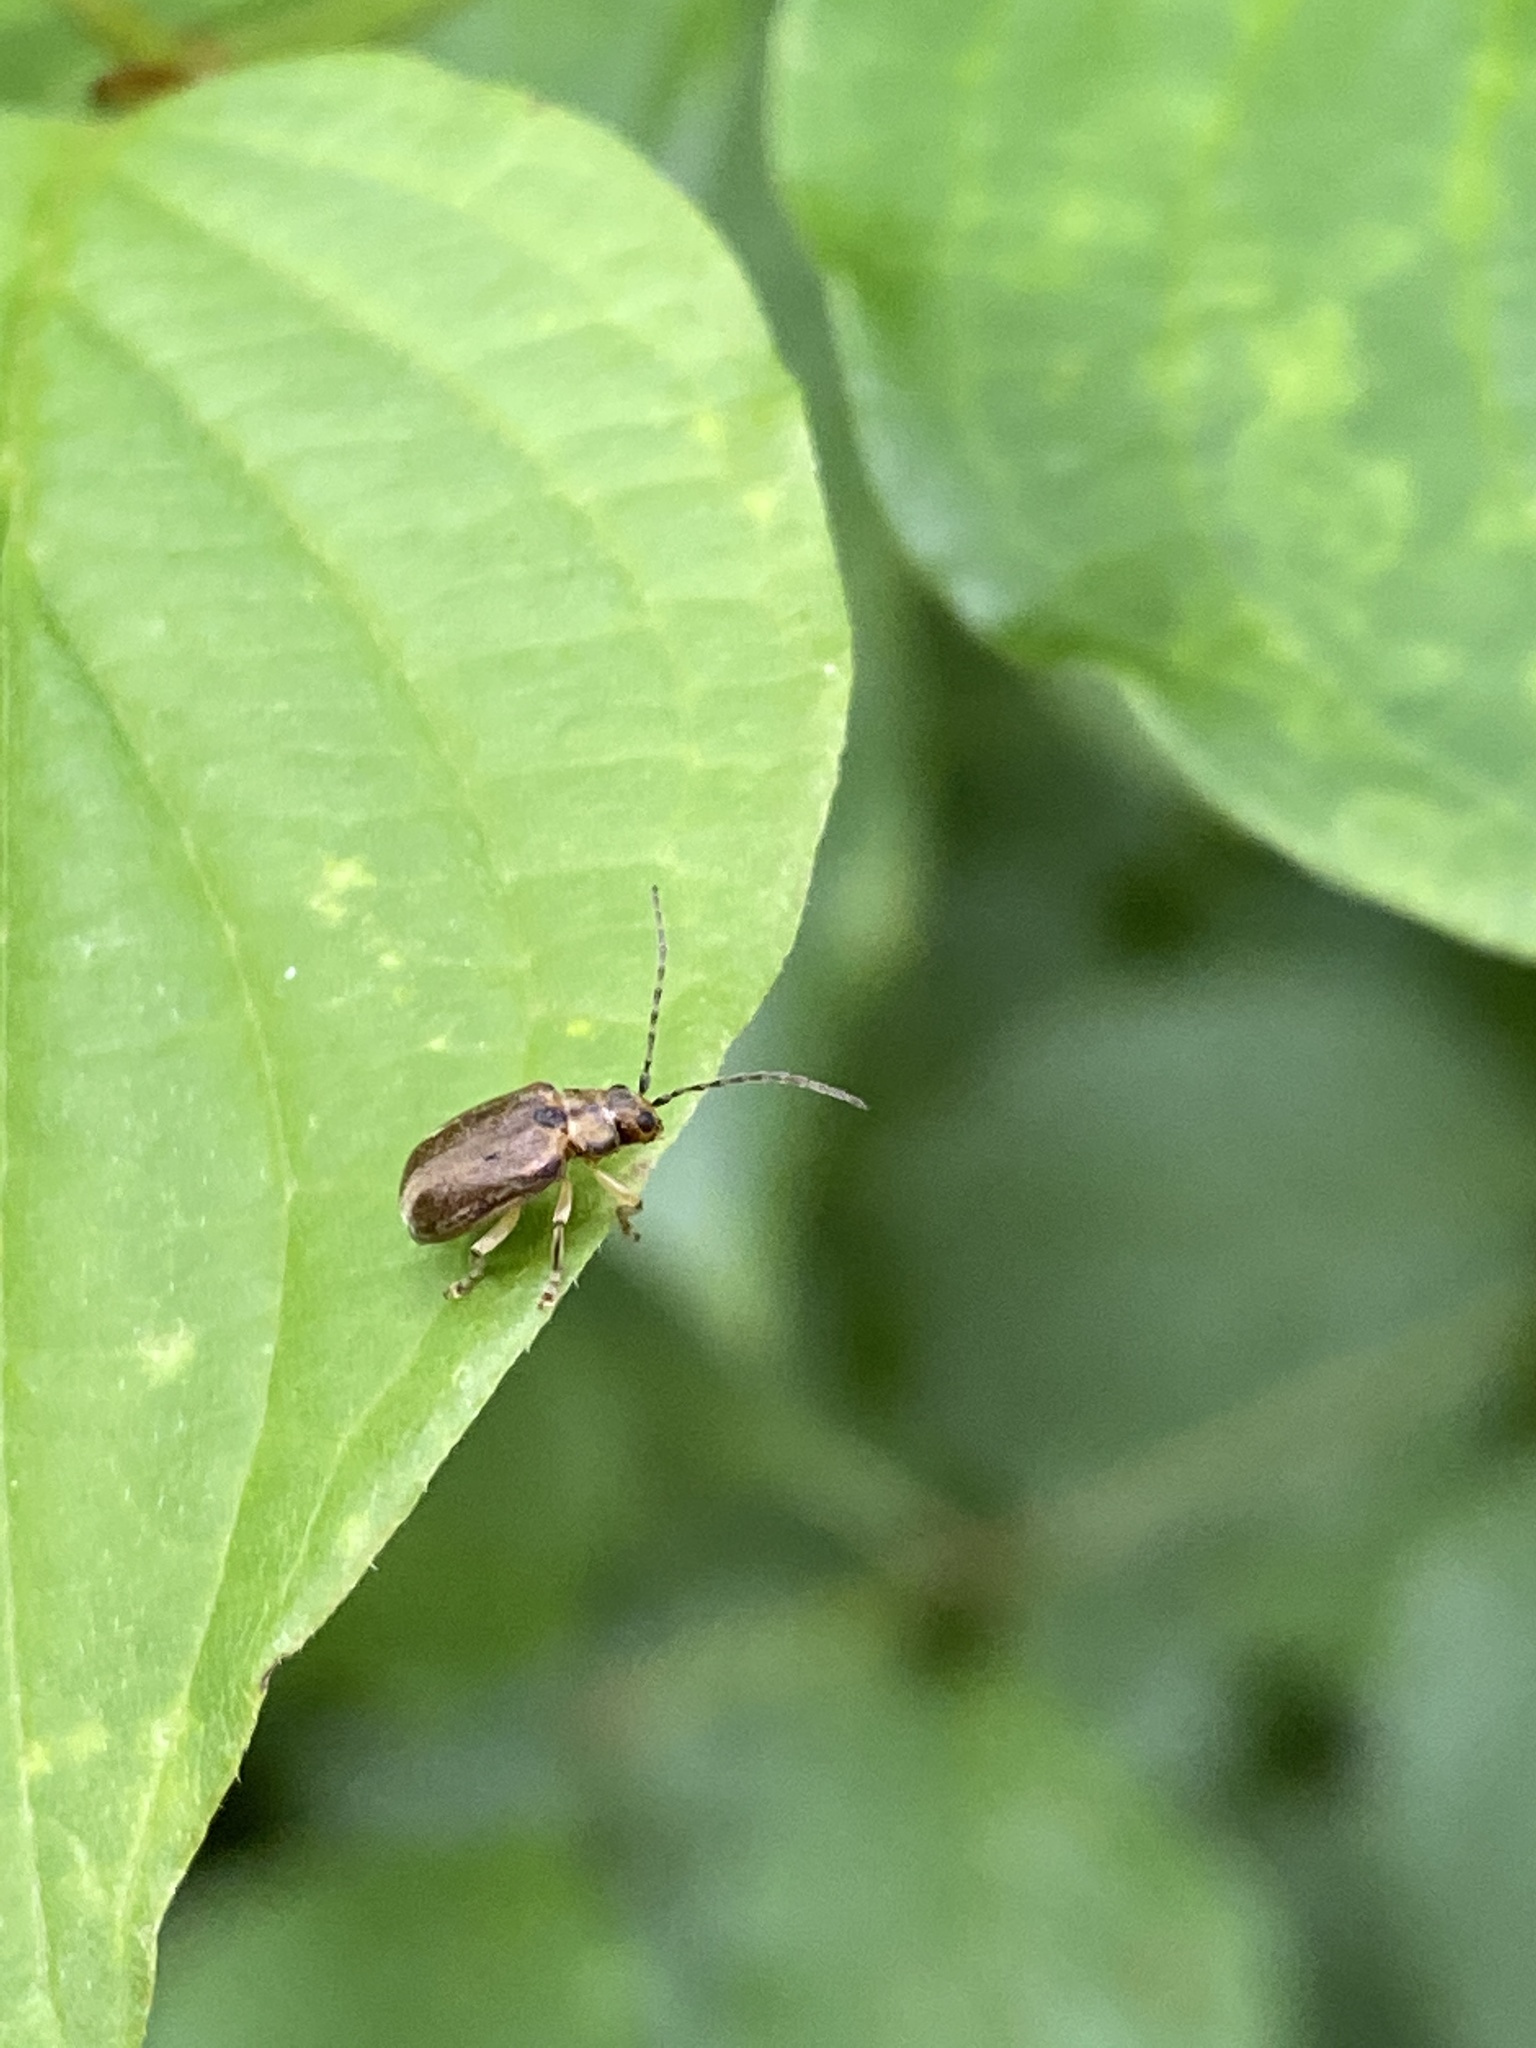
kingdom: Animalia
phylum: Arthropoda
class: Insecta
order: Coleoptera
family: Chrysomelidae
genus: Pyrrhalta
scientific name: Pyrrhalta viburni
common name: Guelder-rose leaf beetle
